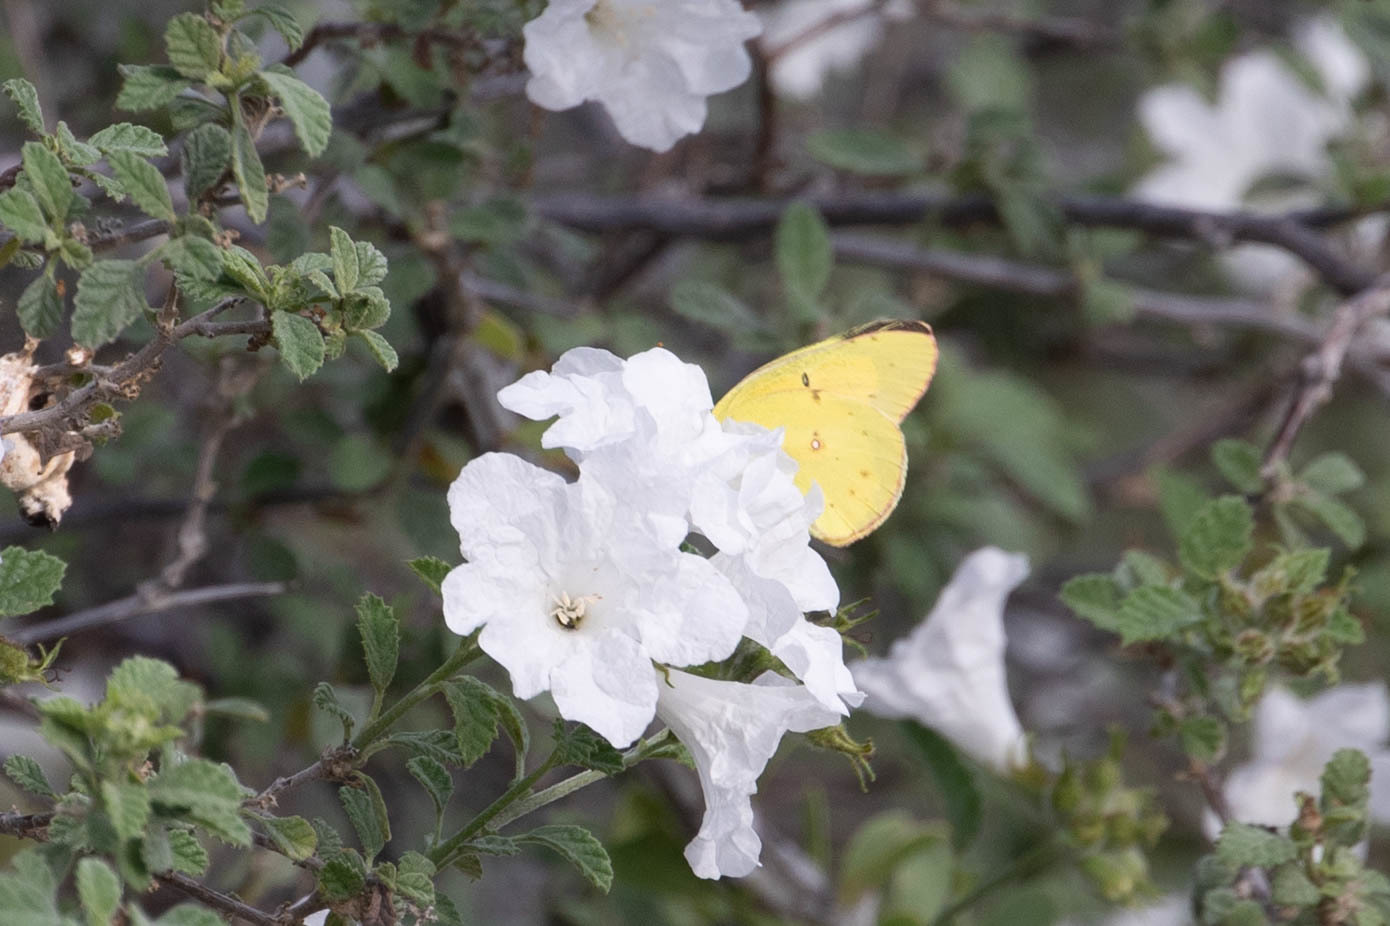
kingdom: Animalia
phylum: Arthropoda
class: Insecta
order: Lepidoptera
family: Pieridae
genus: Colias
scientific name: Colias eurytheme
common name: Alfalfa butterfly
